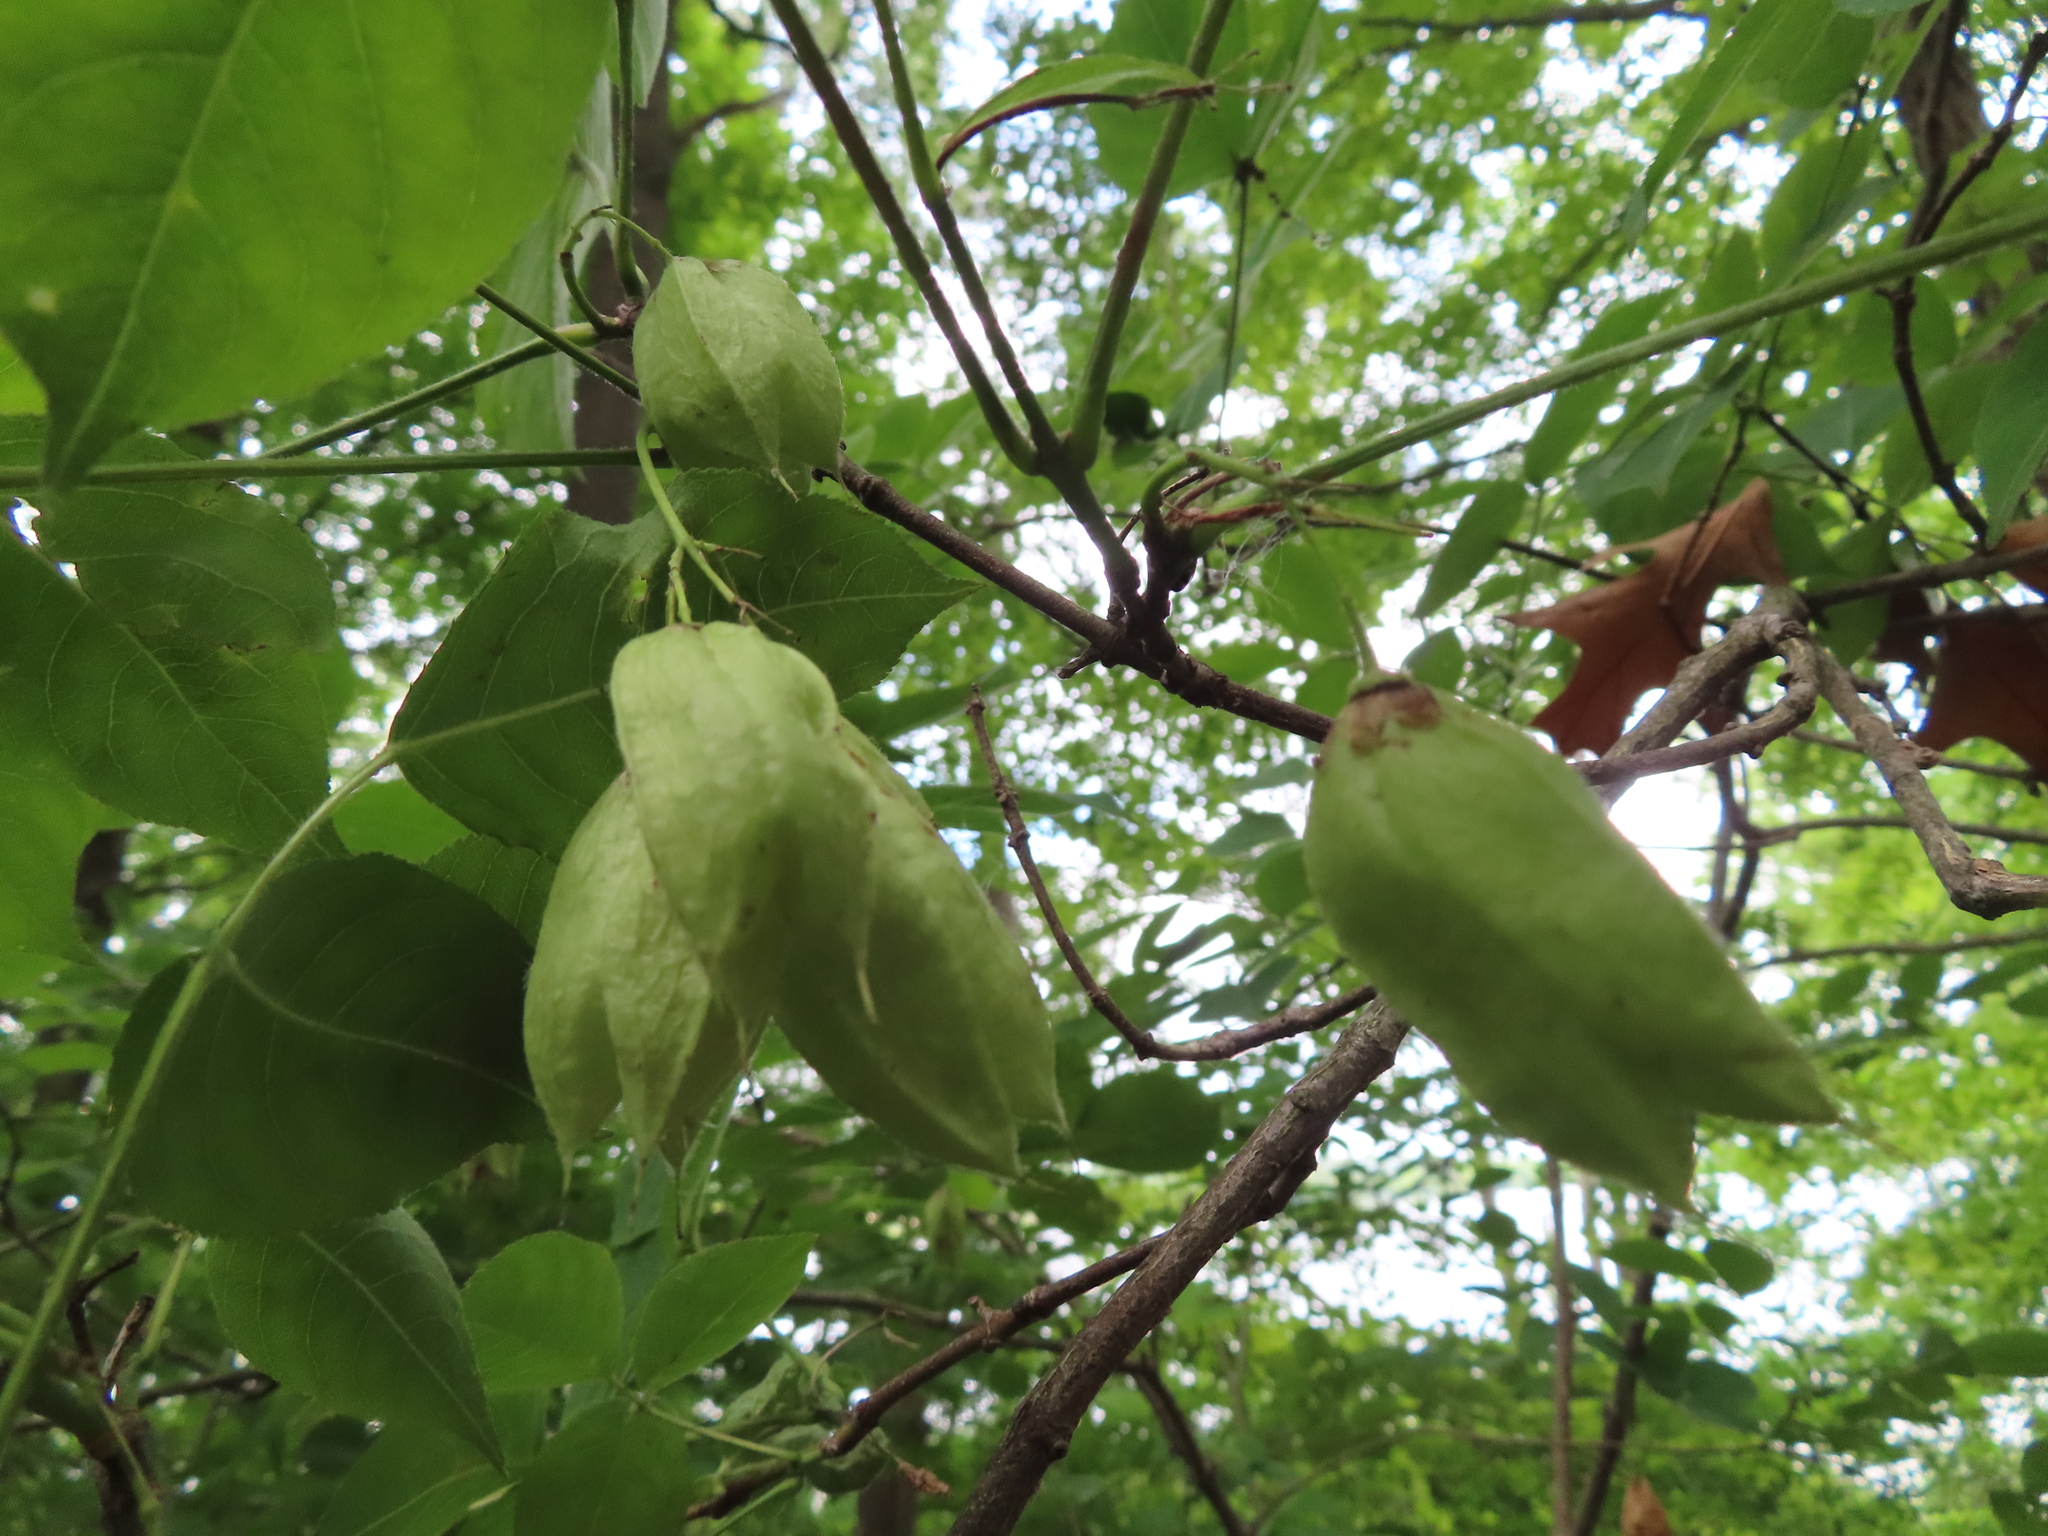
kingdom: Plantae
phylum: Tracheophyta
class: Magnoliopsida
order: Crossosomatales
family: Staphyleaceae
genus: Staphylea
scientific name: Staphylea trifolia
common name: American bladdernut
